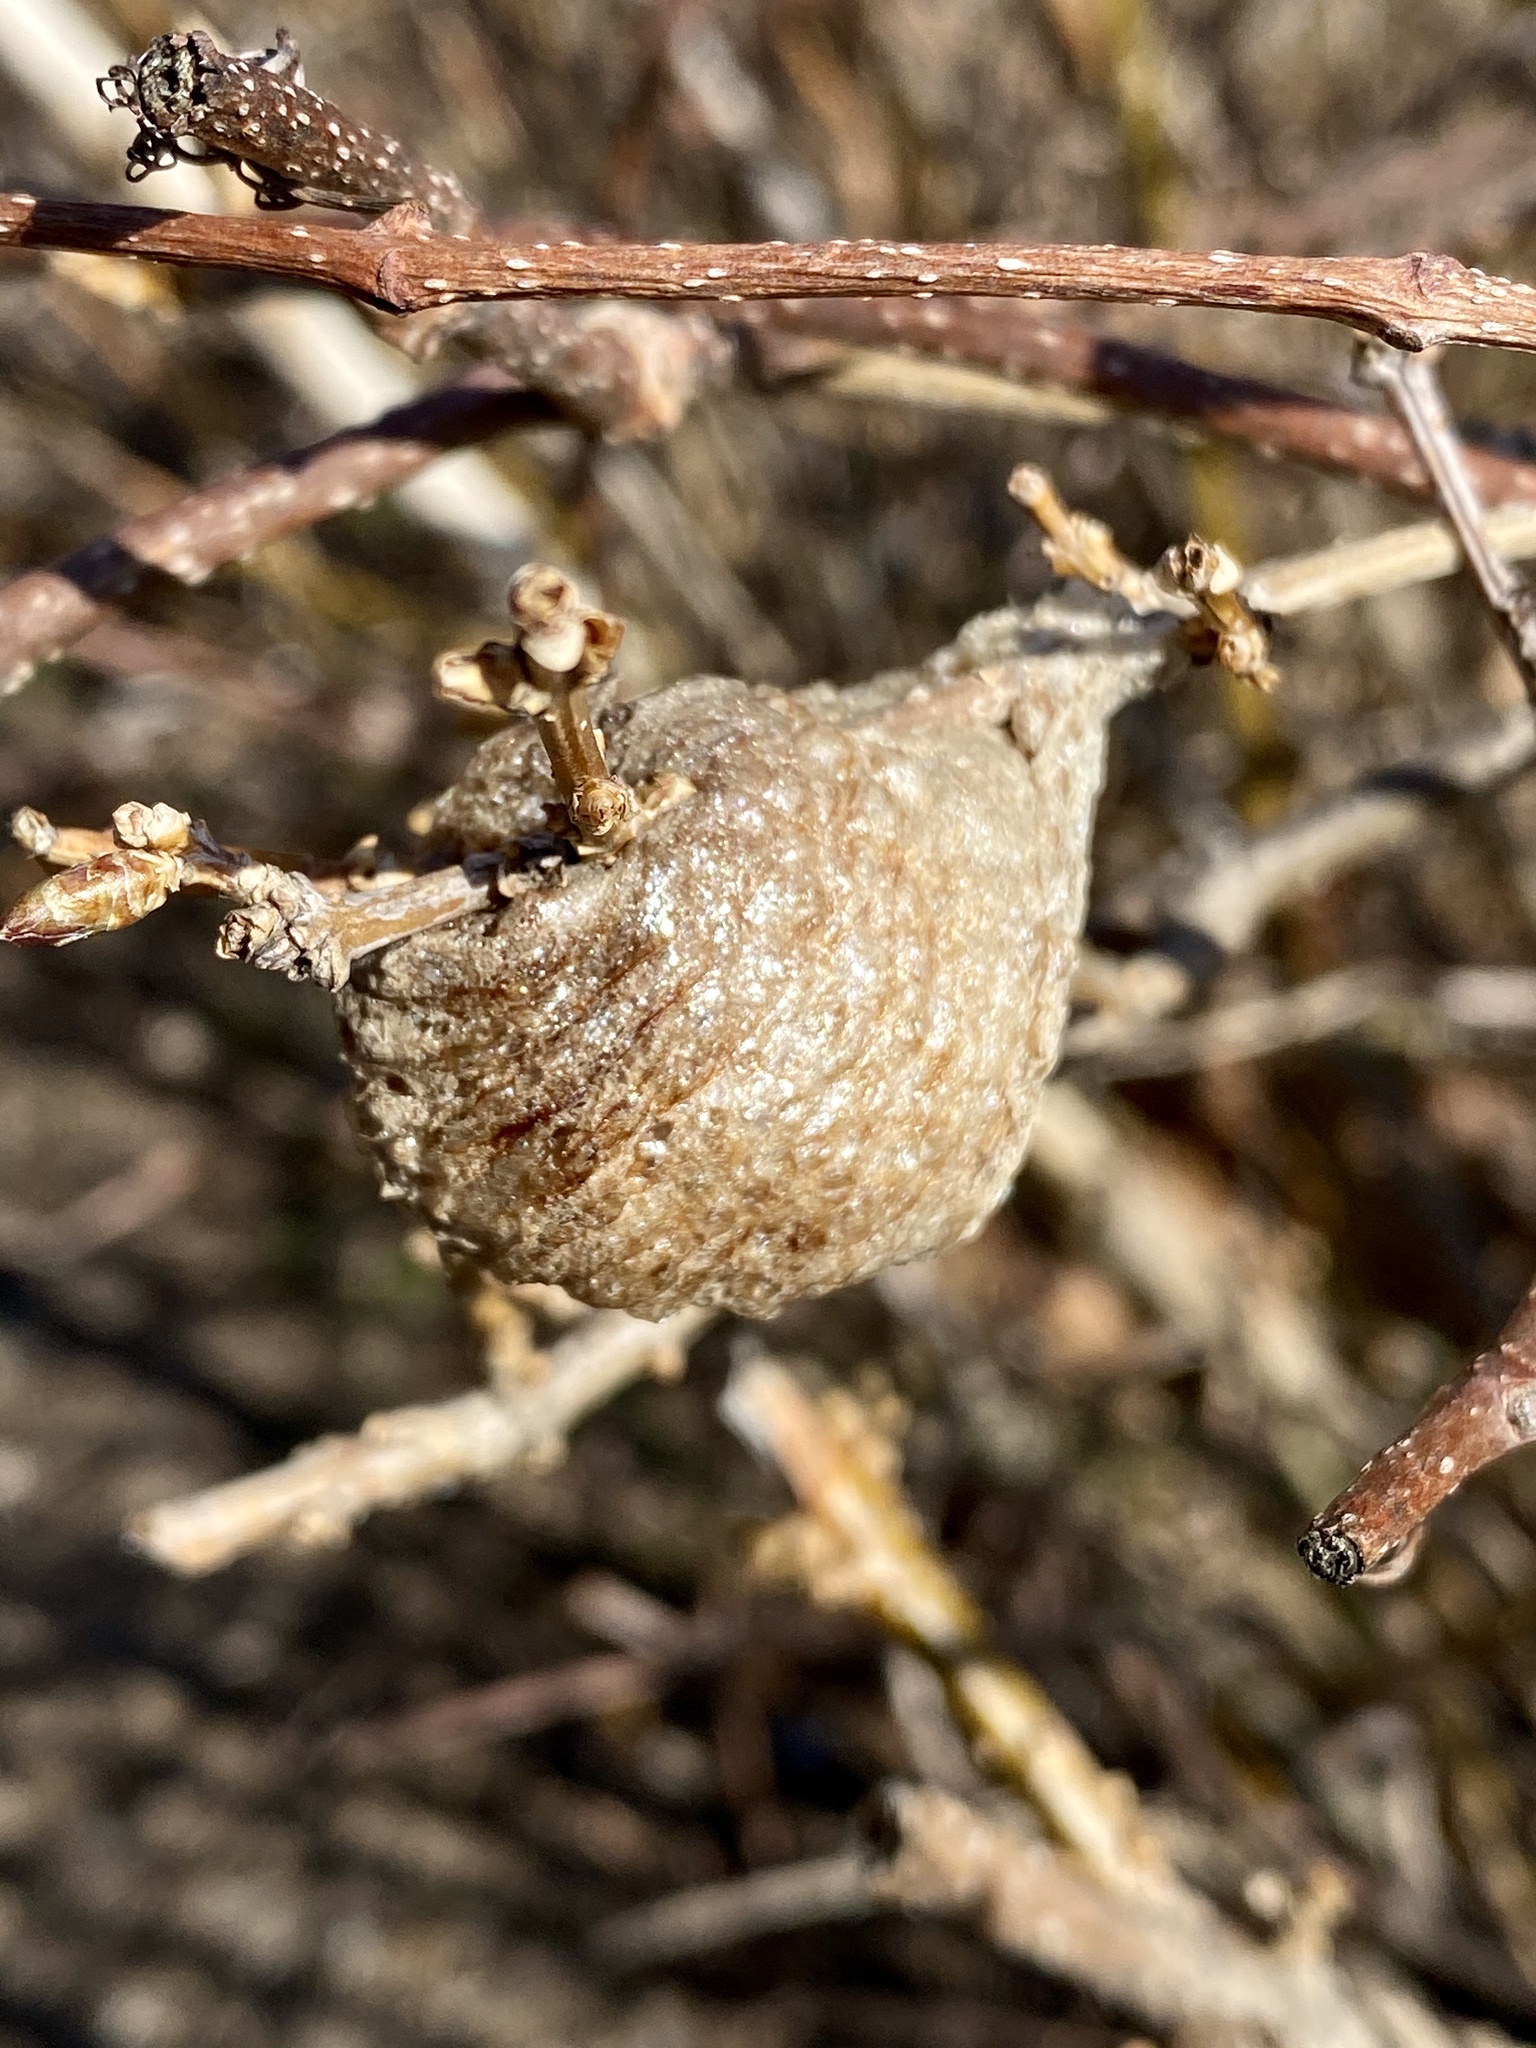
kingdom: Animalia
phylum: Arthropoda
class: Insecta
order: Mantodea
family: Mantidae
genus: Tenodera
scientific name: Tenodera sinensis
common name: Chinese mantis
